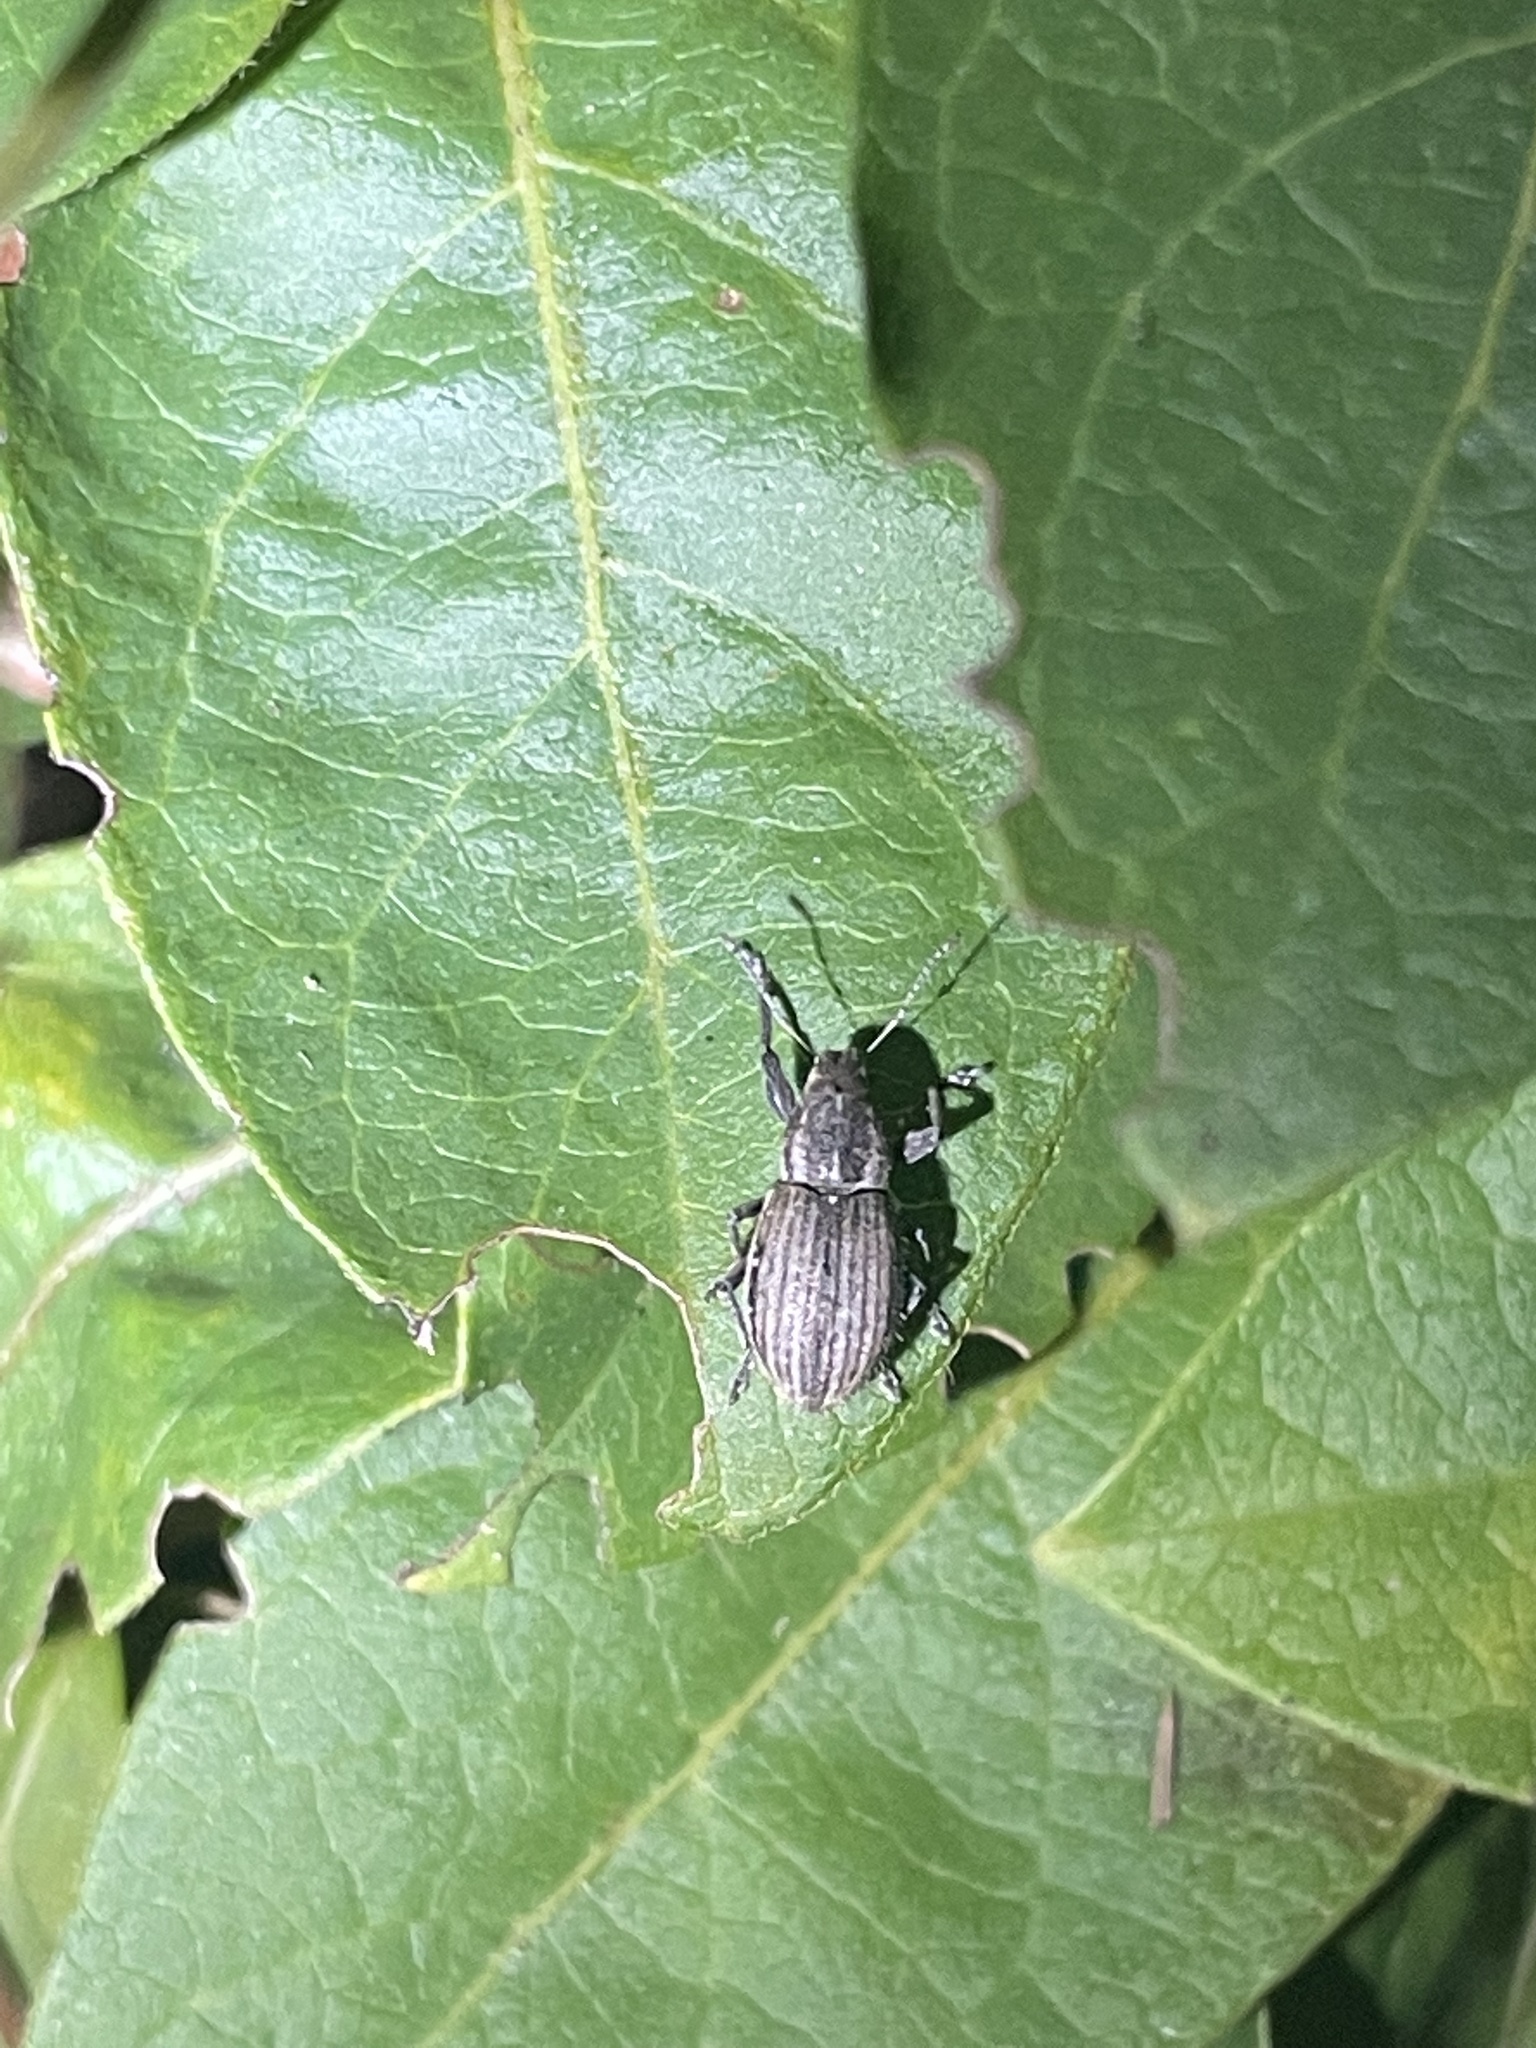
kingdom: Animalia
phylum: Arthropoda
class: Insecta
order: Coleoptera
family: Curculionidae
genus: Naupactus
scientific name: Naupactus leucoloma
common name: Whitefringed beetle
